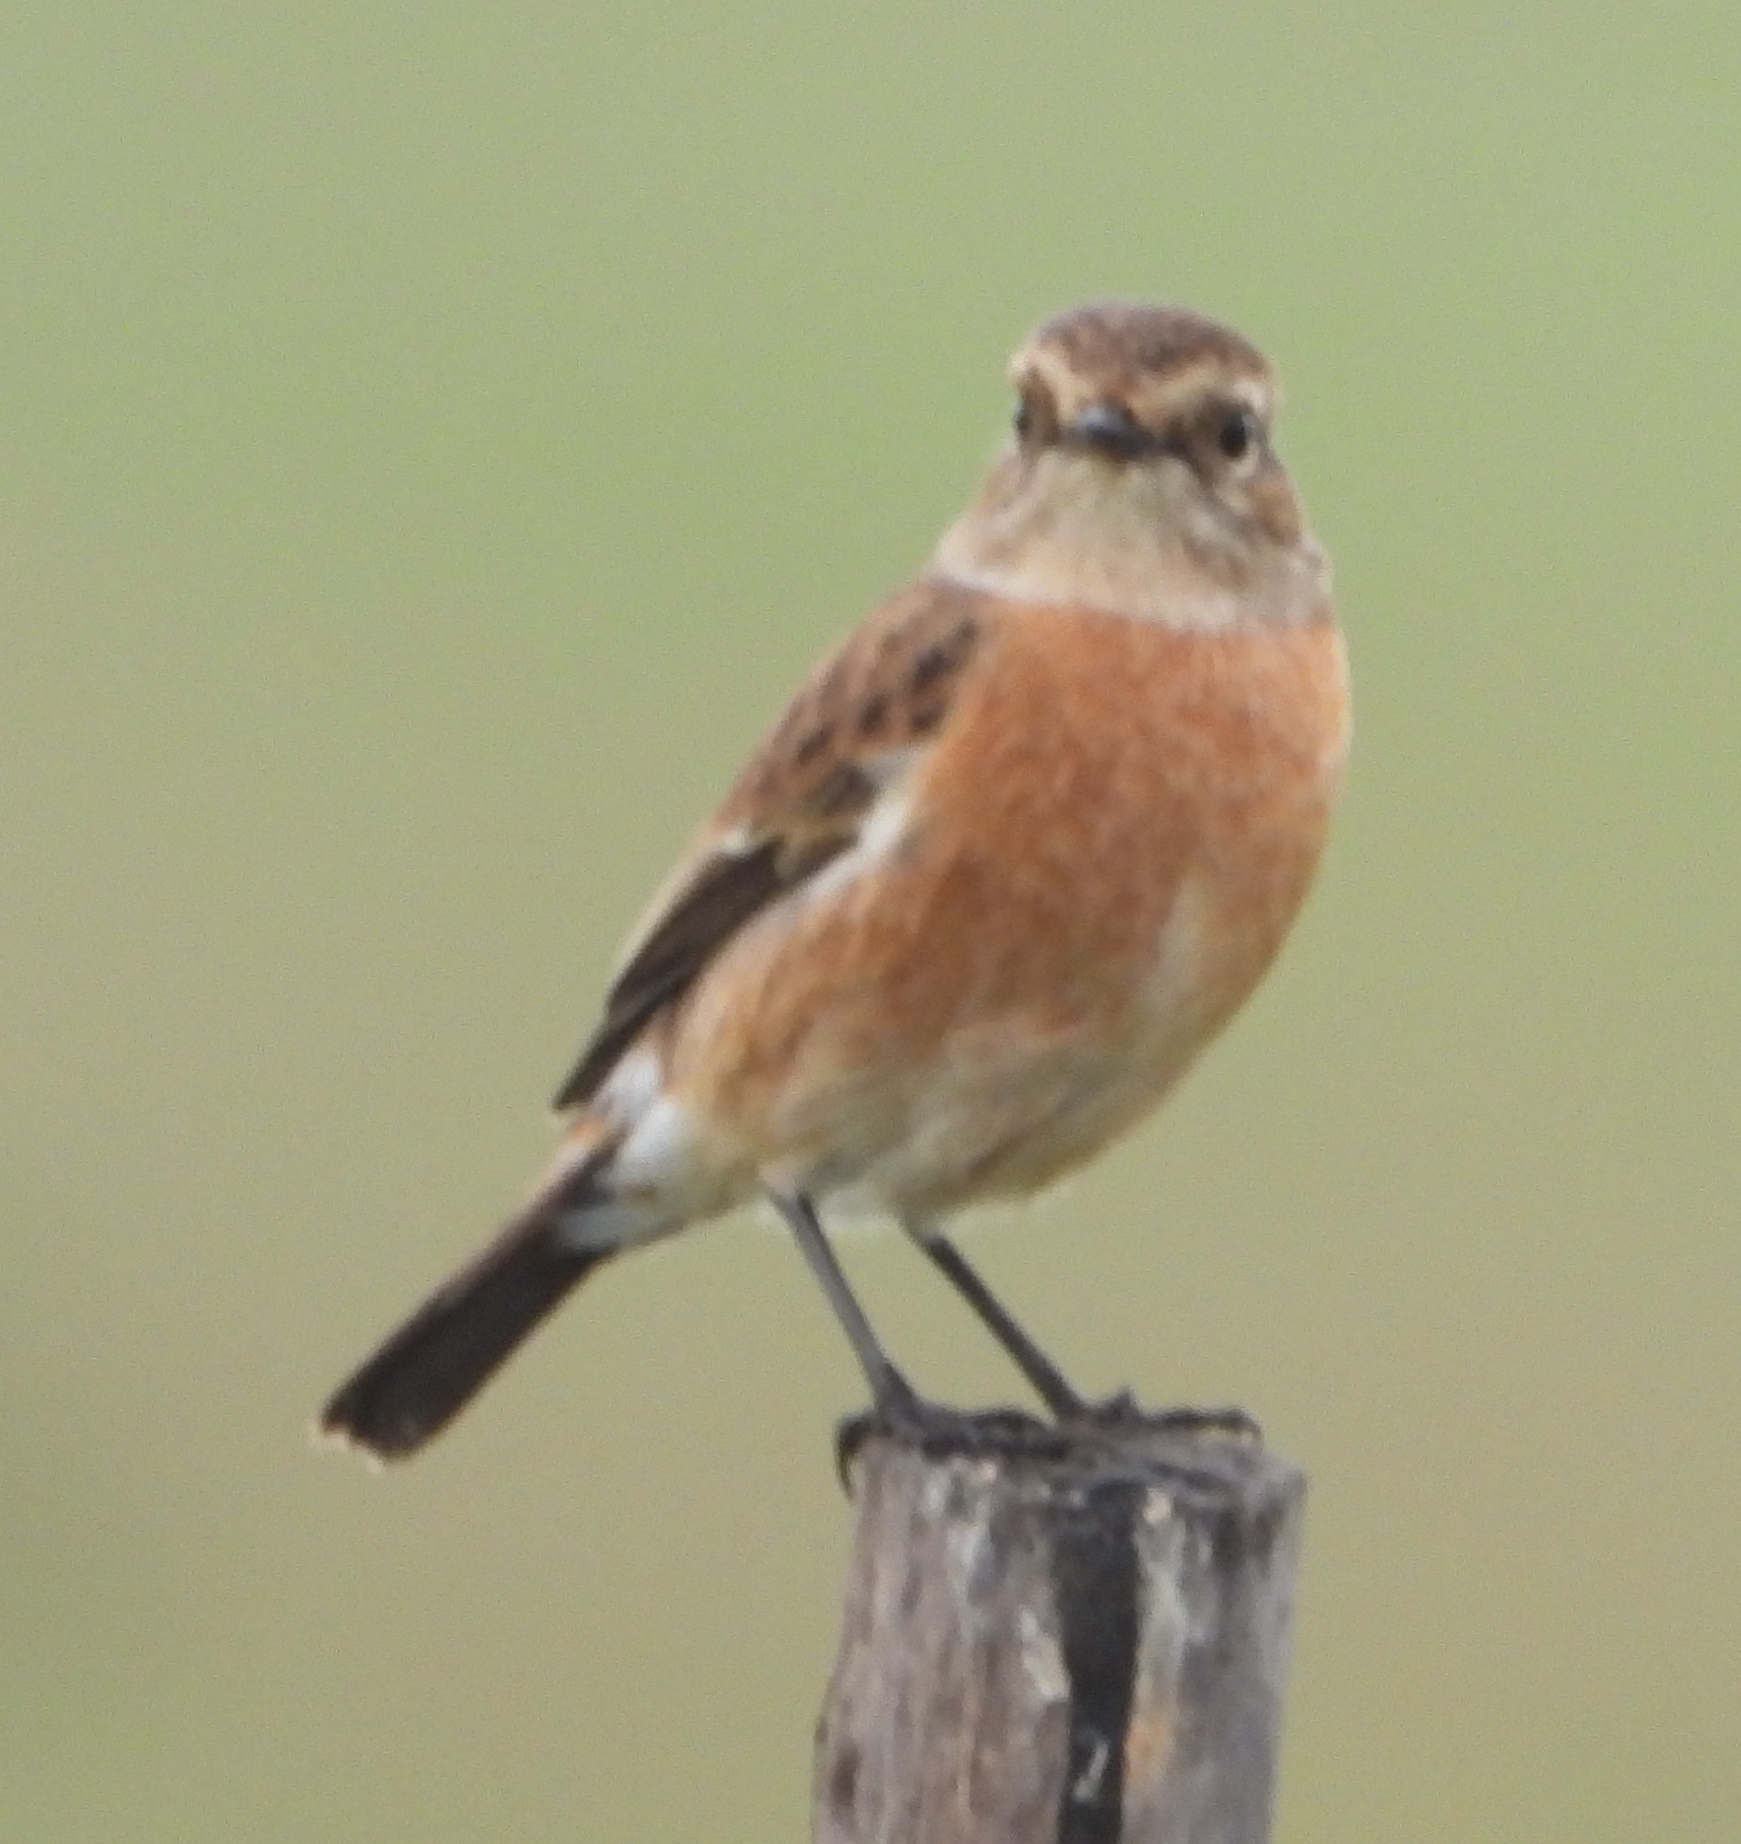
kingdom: Animalia
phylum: Chordata
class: Aves
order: Passeriformes
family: Muscicapidae
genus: Saxicola
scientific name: Saxicola torquatus
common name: African stonechat
